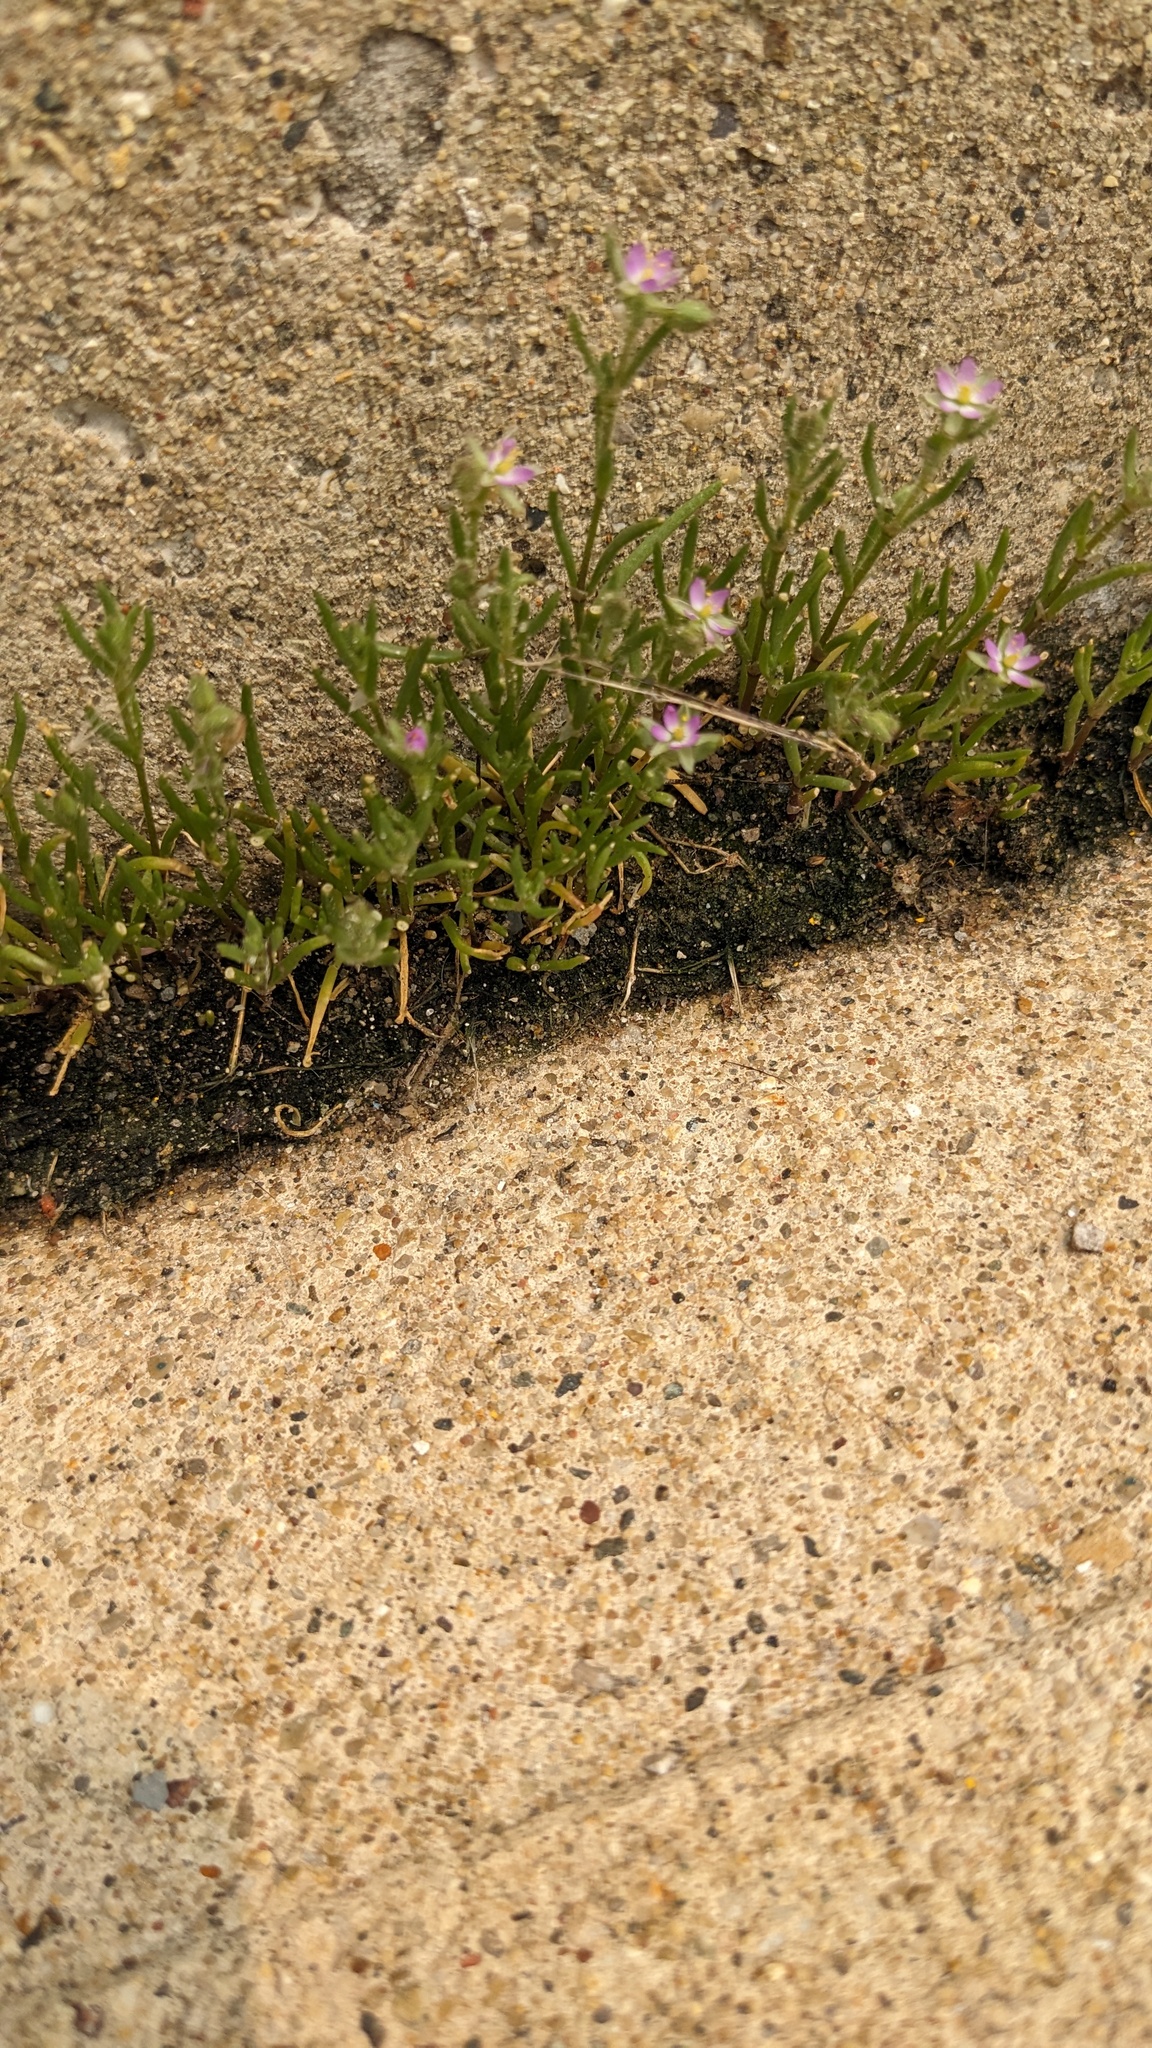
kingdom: Plantae
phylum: Tracheophyta
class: Magnoliopsida
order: Caryophyllales
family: Caryophyllaceae
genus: Spergularia
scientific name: Spergularia marina
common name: Lesser sea-spurrey
